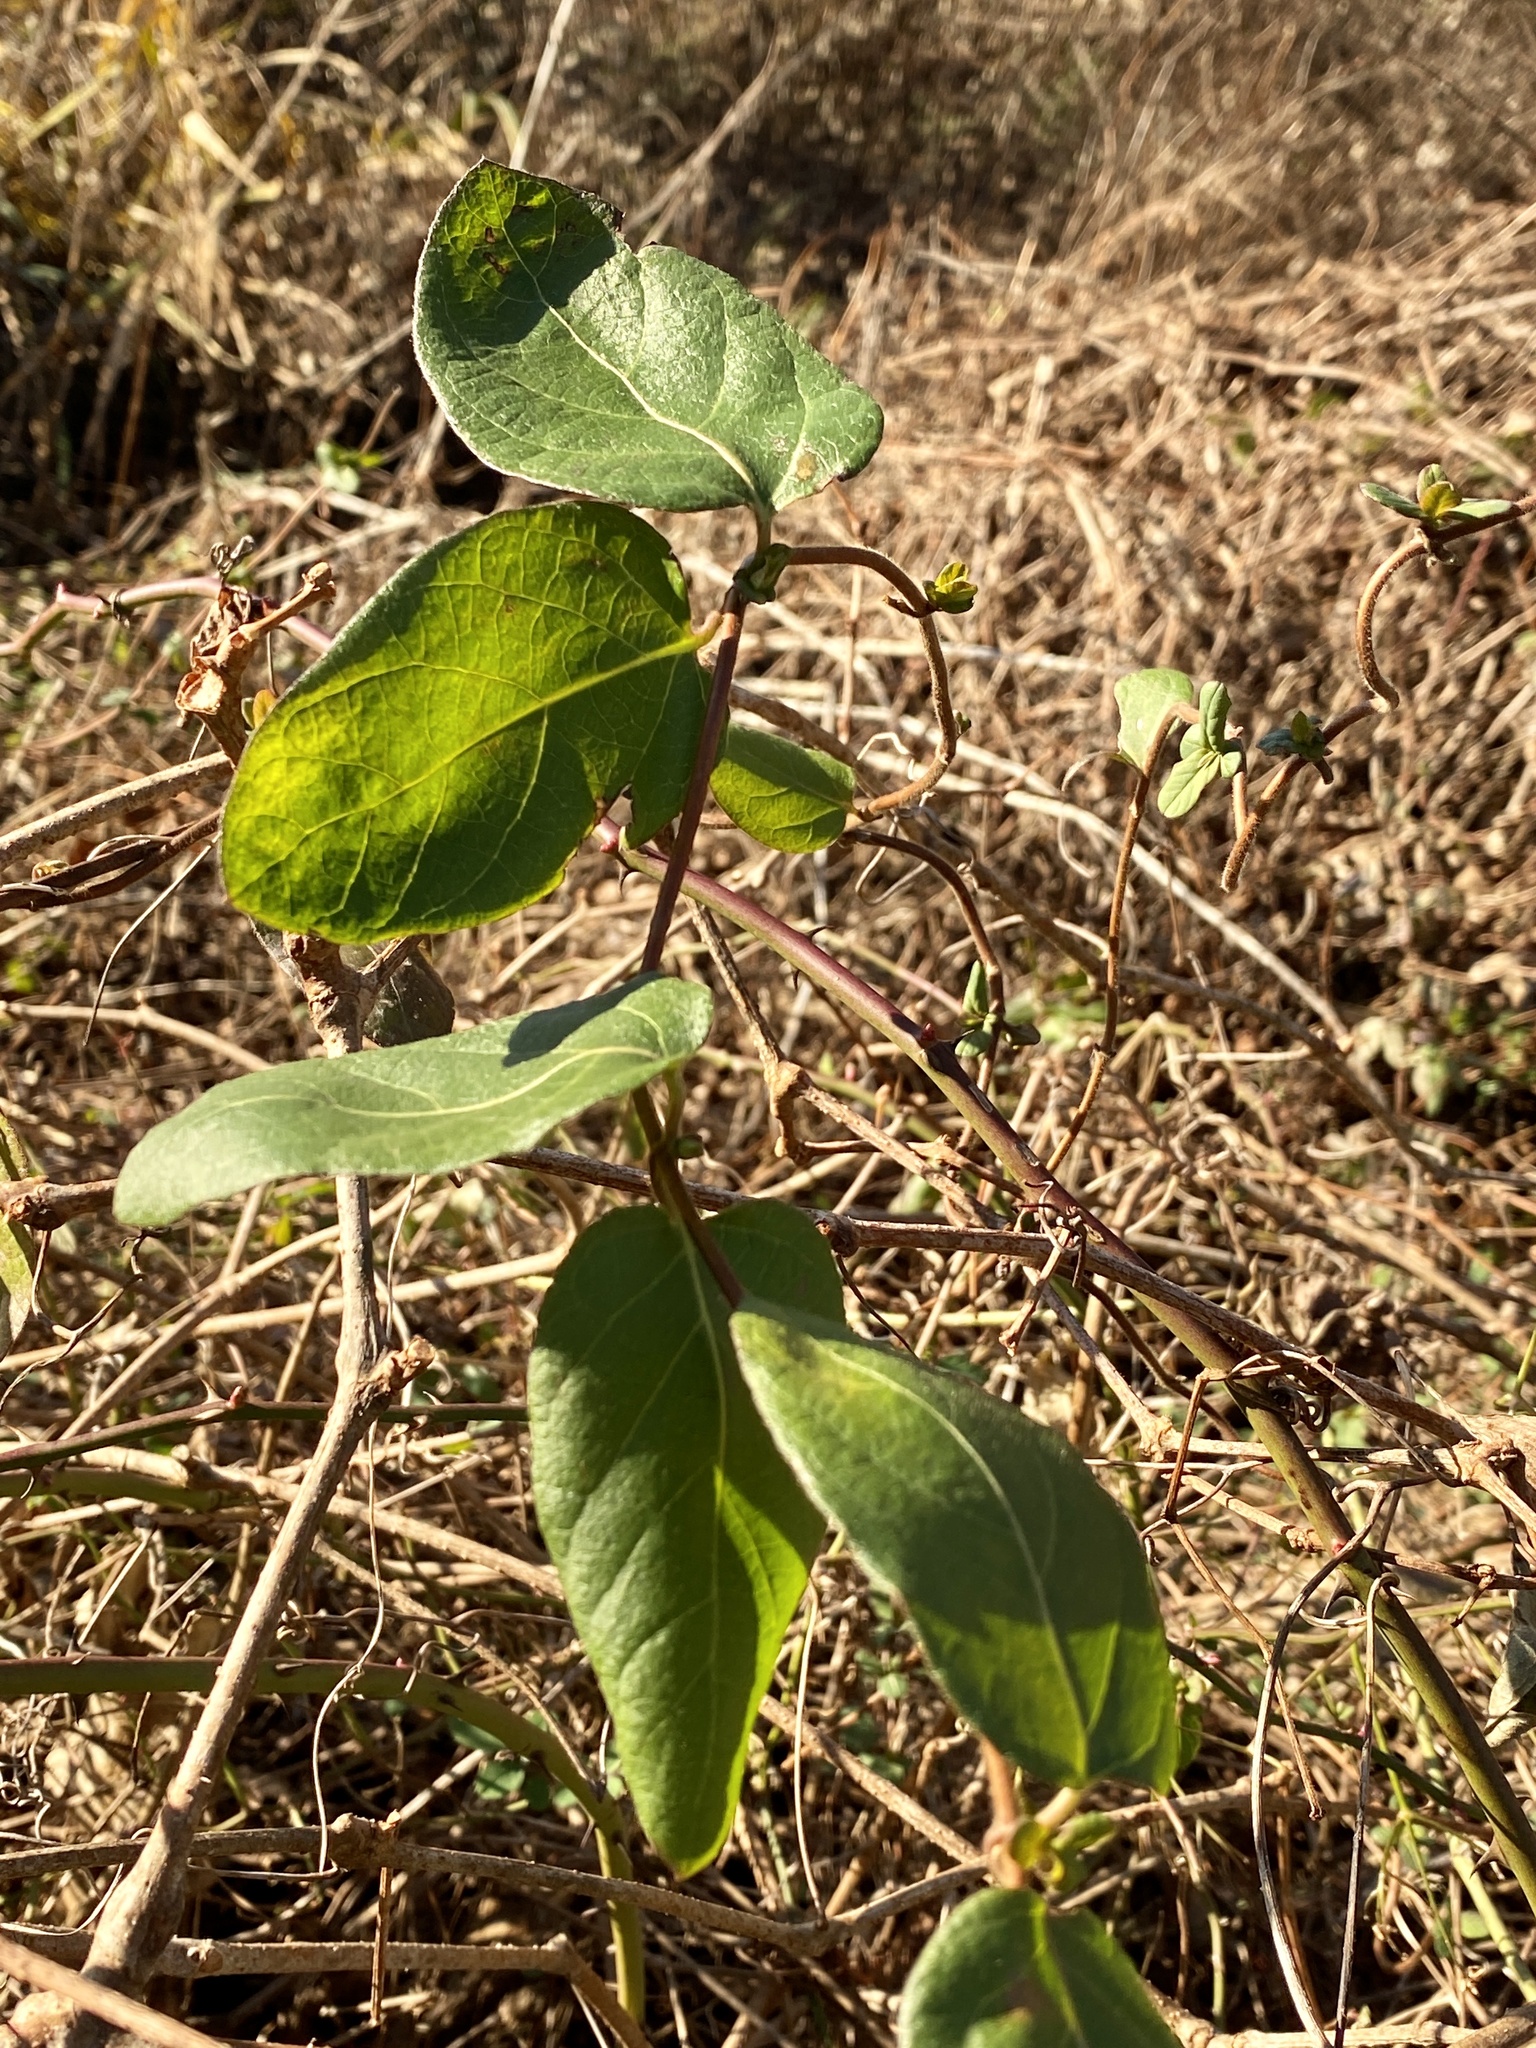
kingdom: Plantae
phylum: Tracheophyta
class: Magnoliopsida
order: Ranunculales
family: Ranunculaceae
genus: Clematis
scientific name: Clematis terniflora
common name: Sweet autumn clematis
